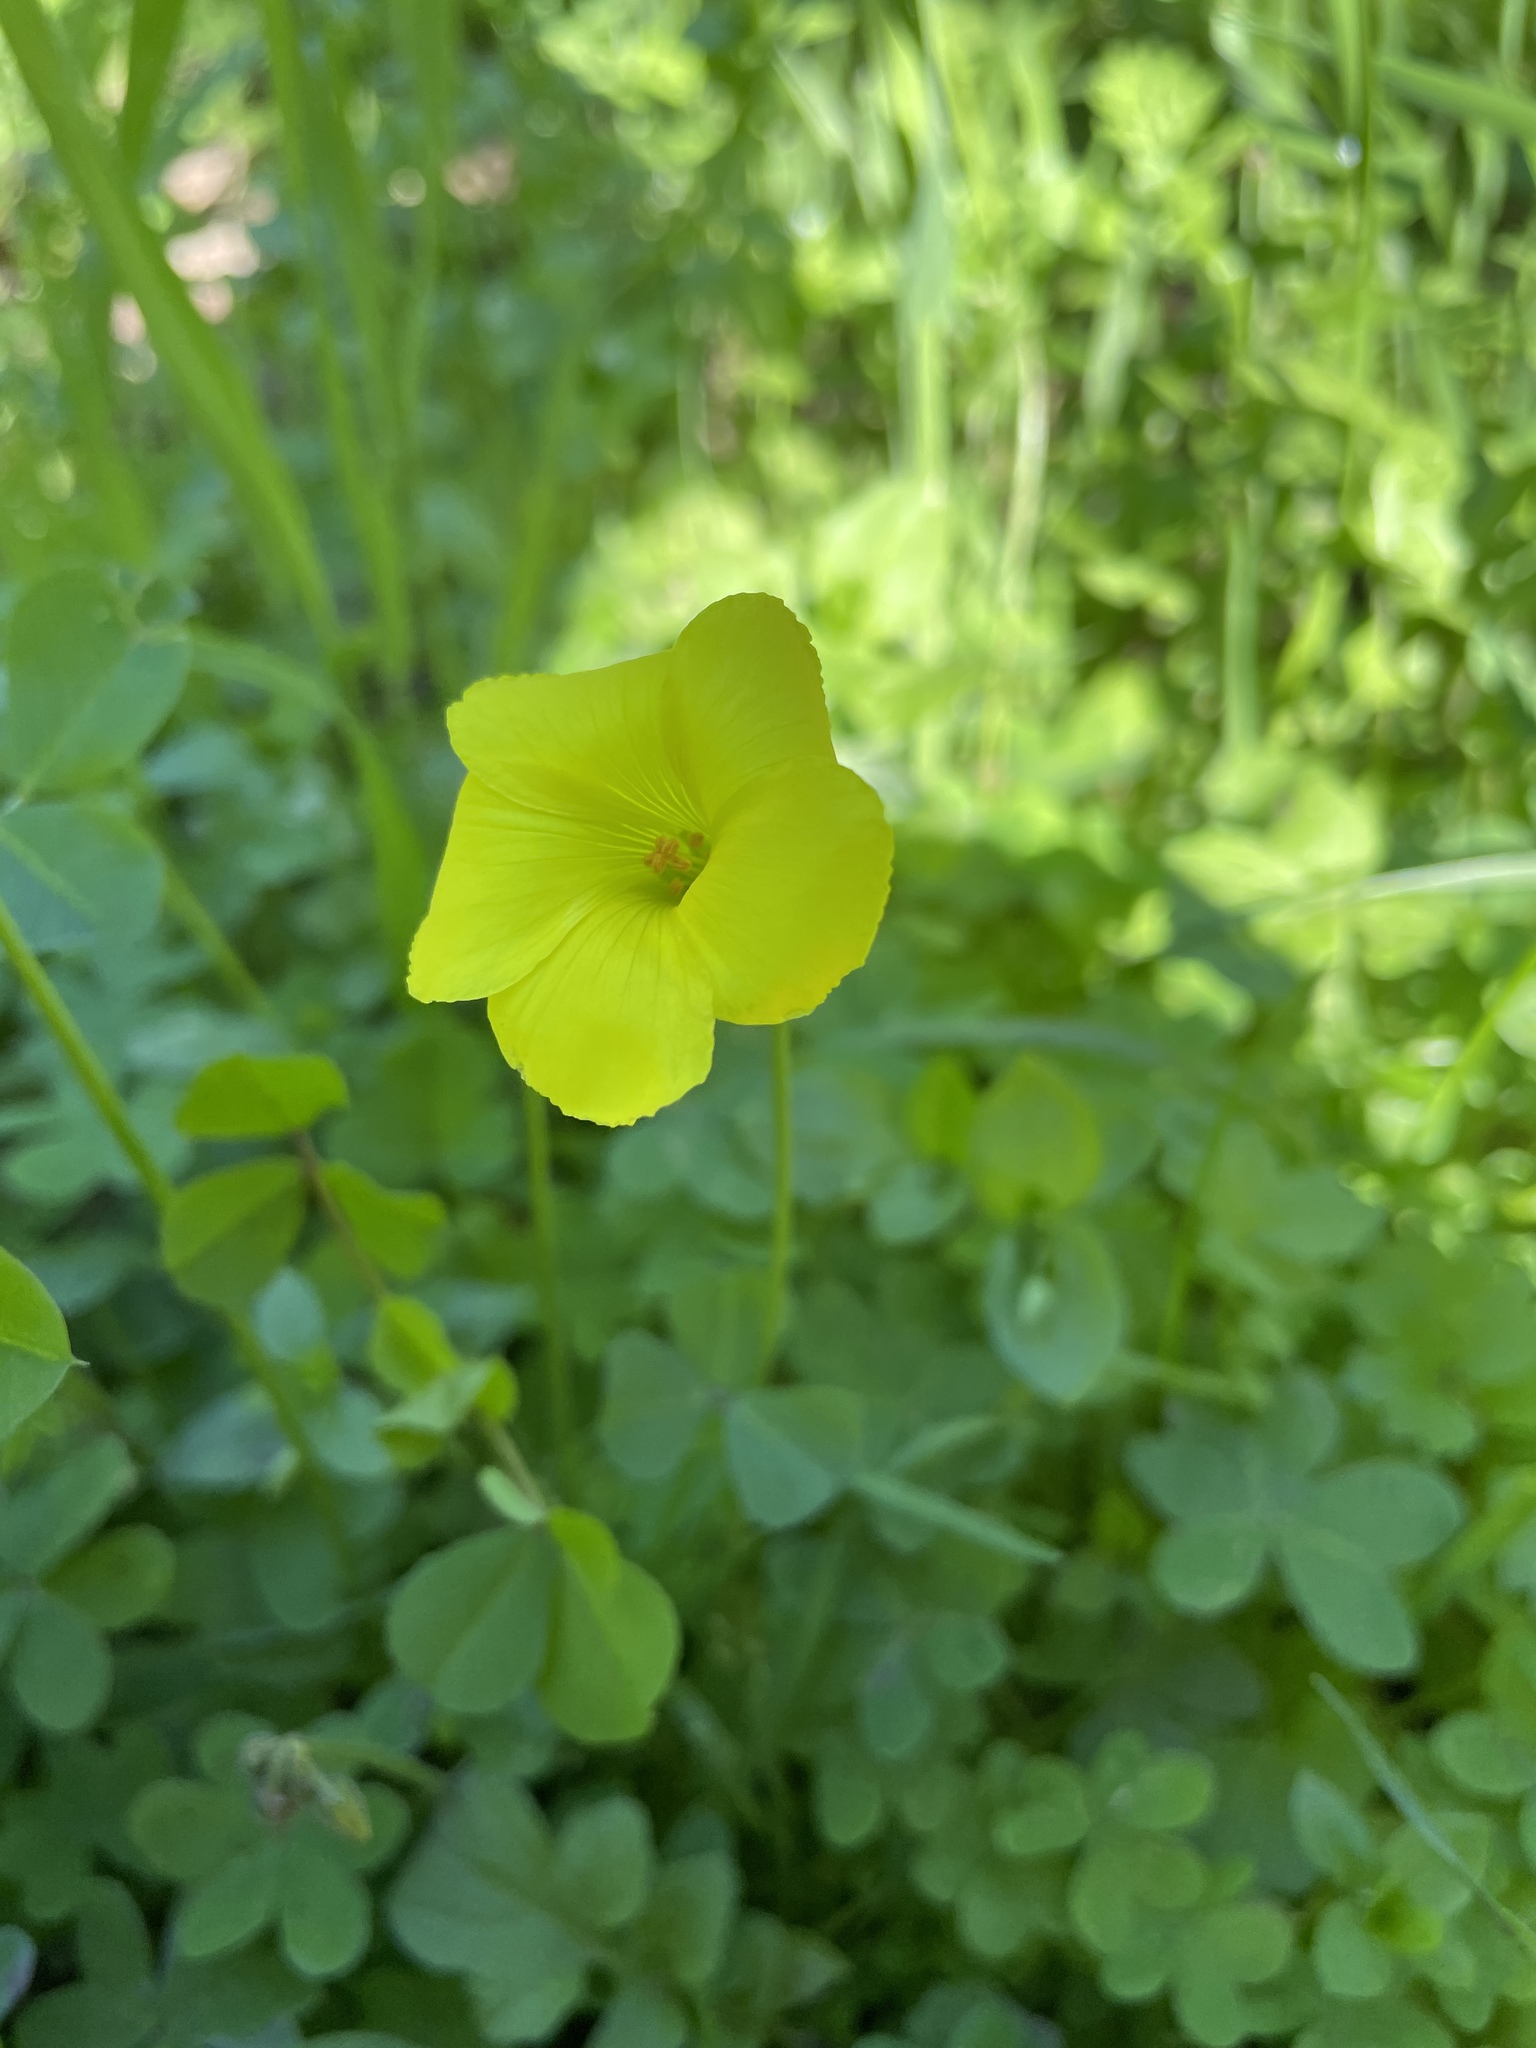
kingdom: Plantae
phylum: Tracheophyta
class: Magnoliopsida
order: Oxalidales
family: Oxalidaceae
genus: Oxalis
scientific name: Oxalis pes-caprae
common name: Bermuda-buttercup
